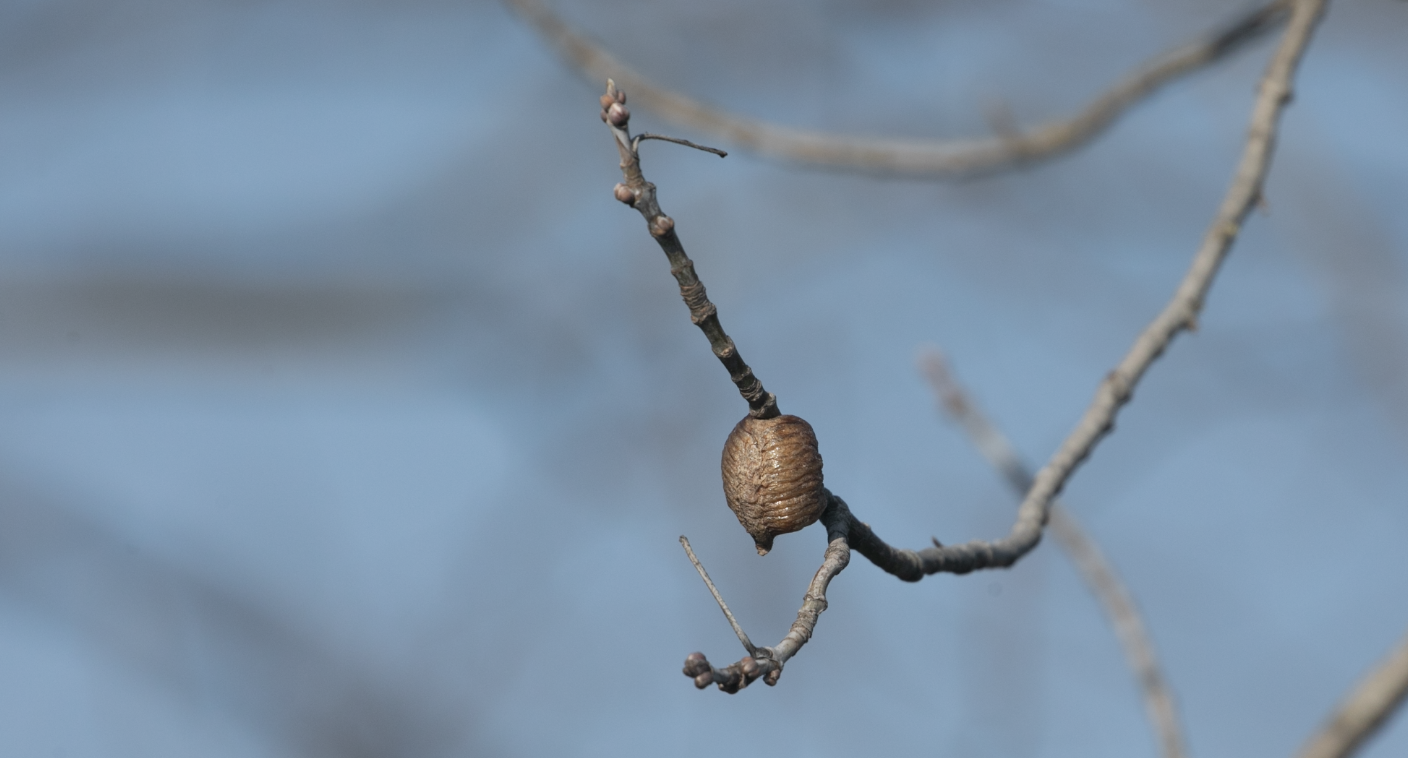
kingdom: Animalia
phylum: Arthropoda
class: Insecta
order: Mantodea
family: Mantidae
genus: Hierodula
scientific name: Hierodula transcaucasica
